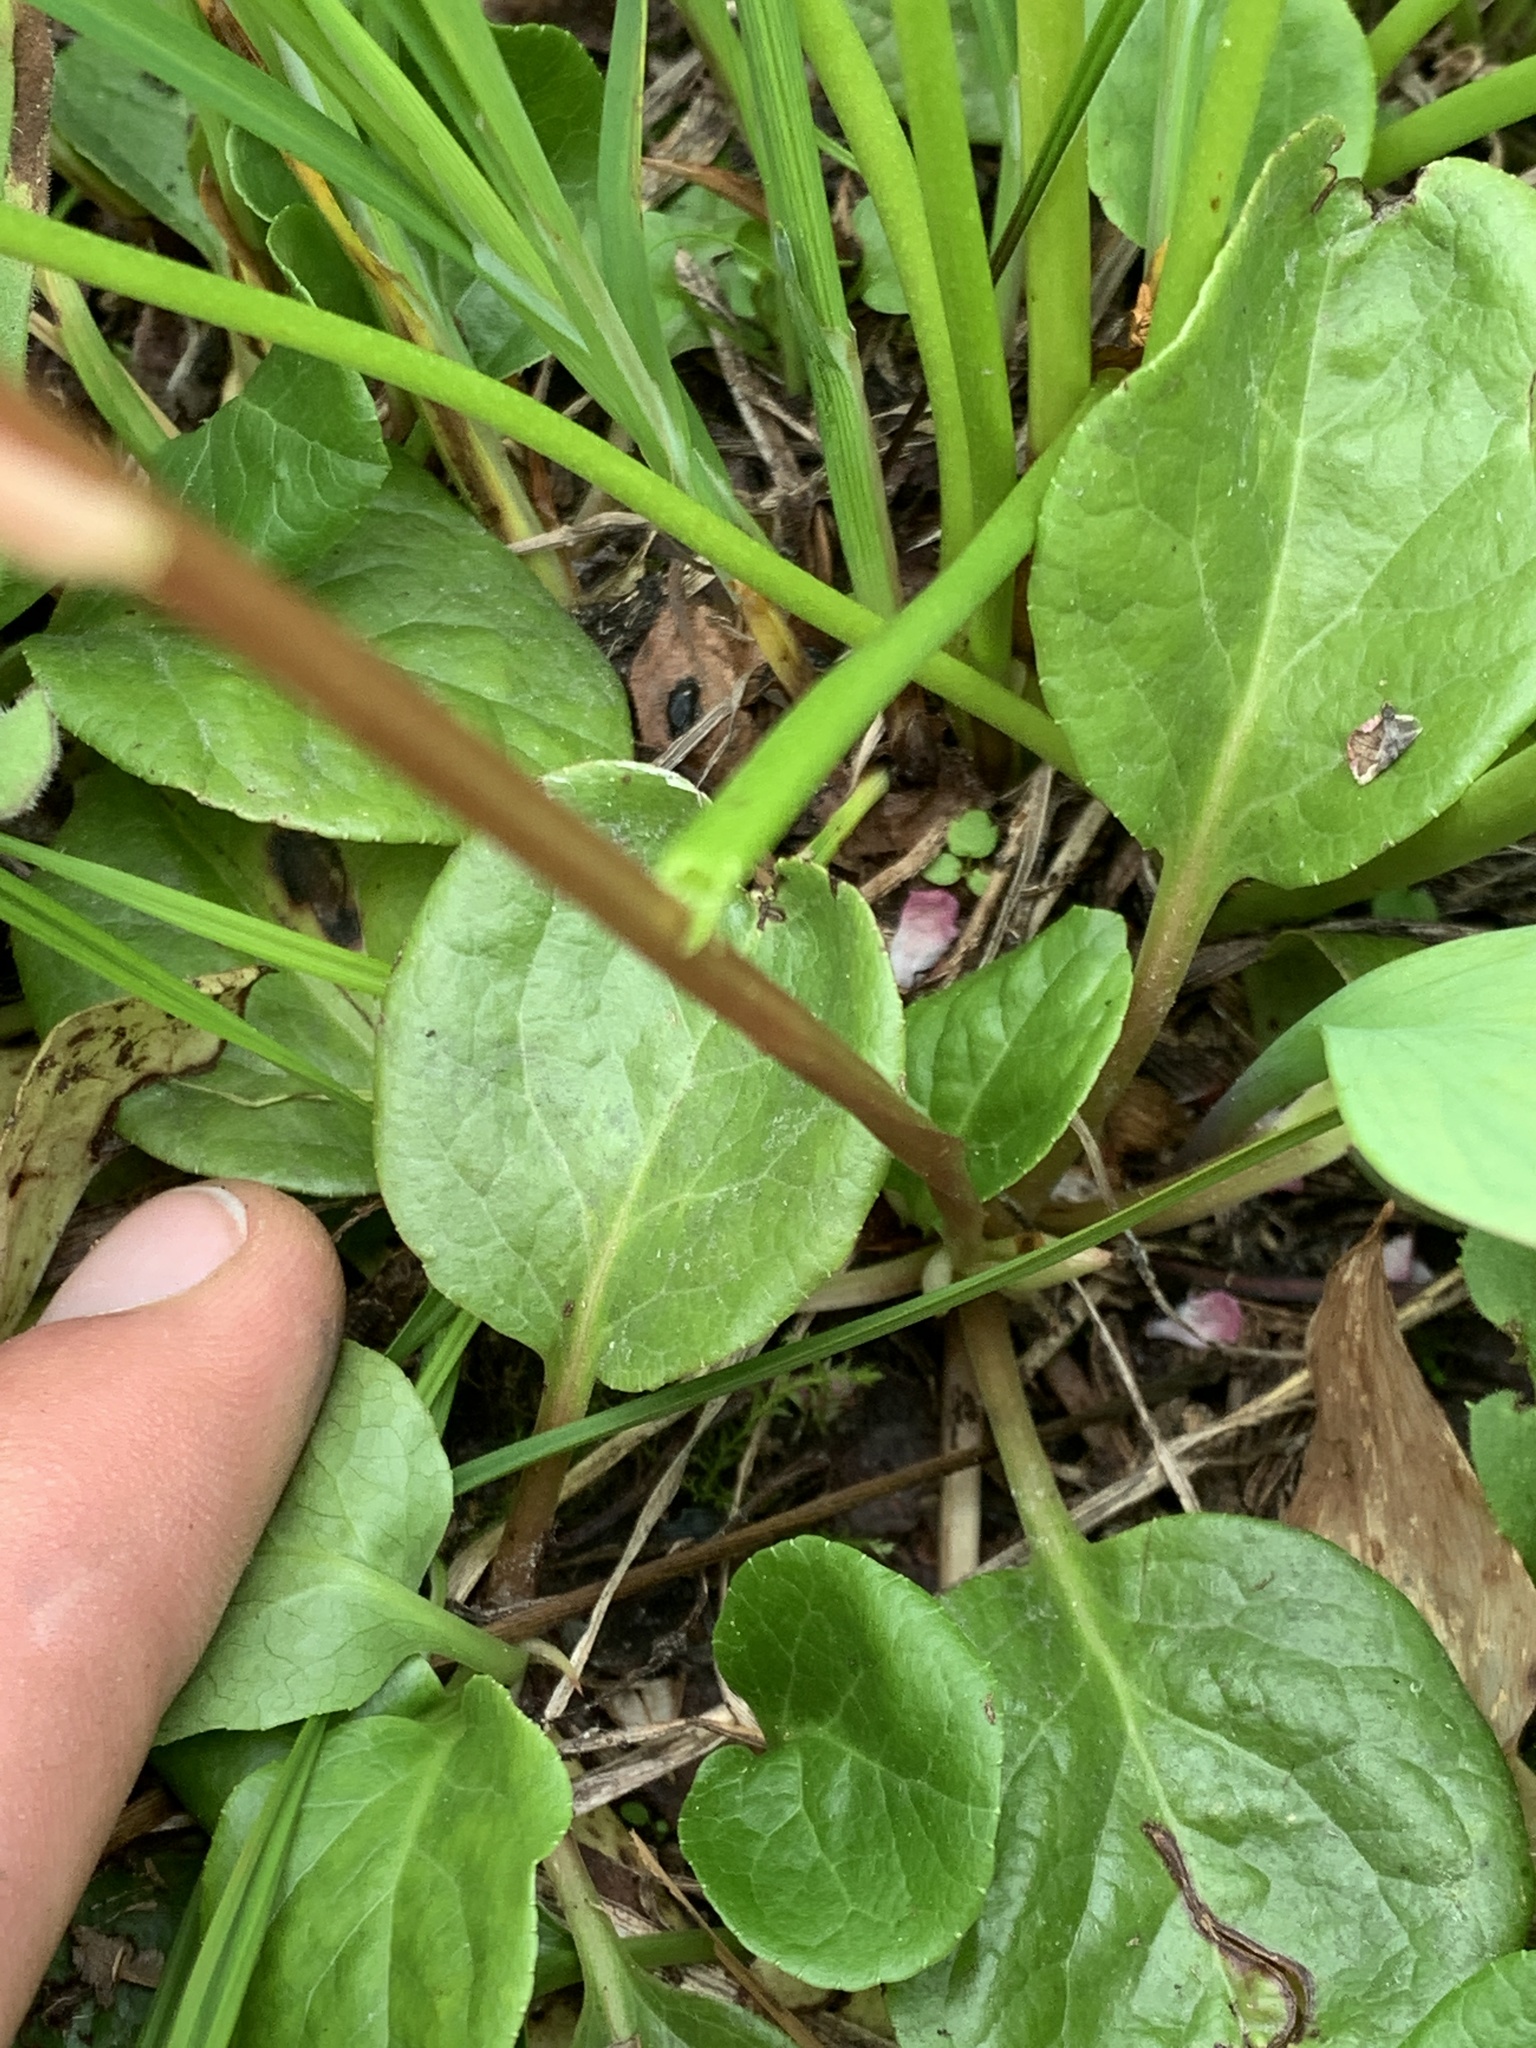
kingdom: Plantae
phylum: Tracheophyta
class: Magnoliopsida
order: Ericales
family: Ericaceae
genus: Pyrola
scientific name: Pyrola asarifolia
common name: Bog wintergreen
